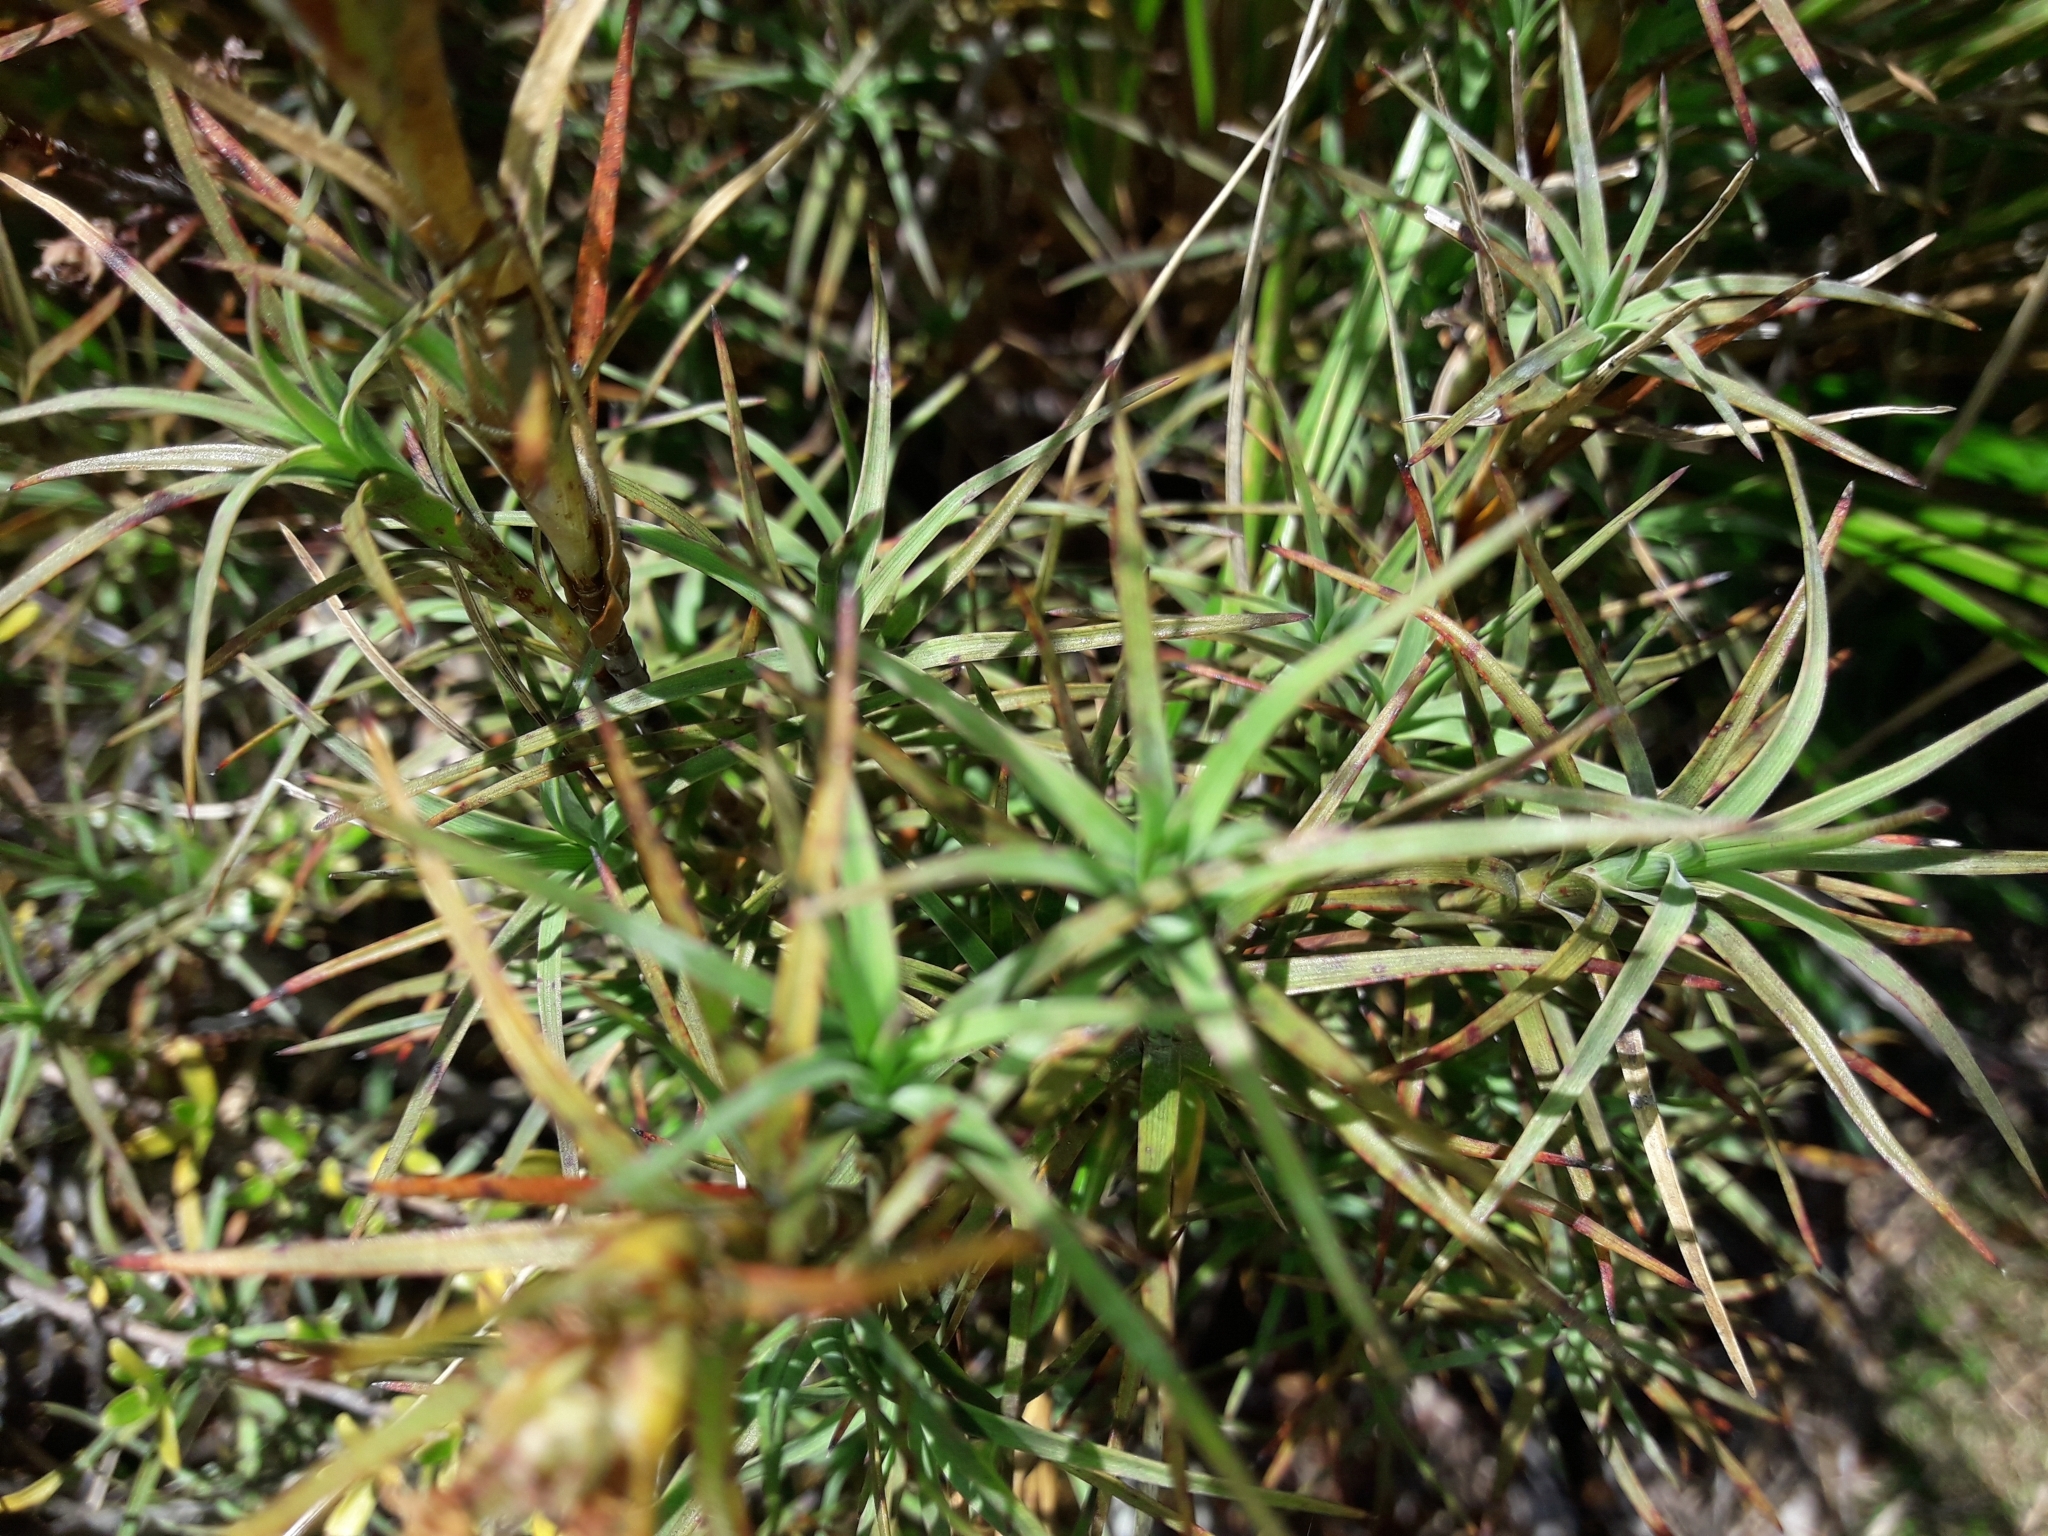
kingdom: Plantae
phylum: Tracheophyta
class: Magnoliopsida
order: Ericales
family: Ericaceae
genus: Dracophyllum
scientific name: Dracophyllum recurvum
